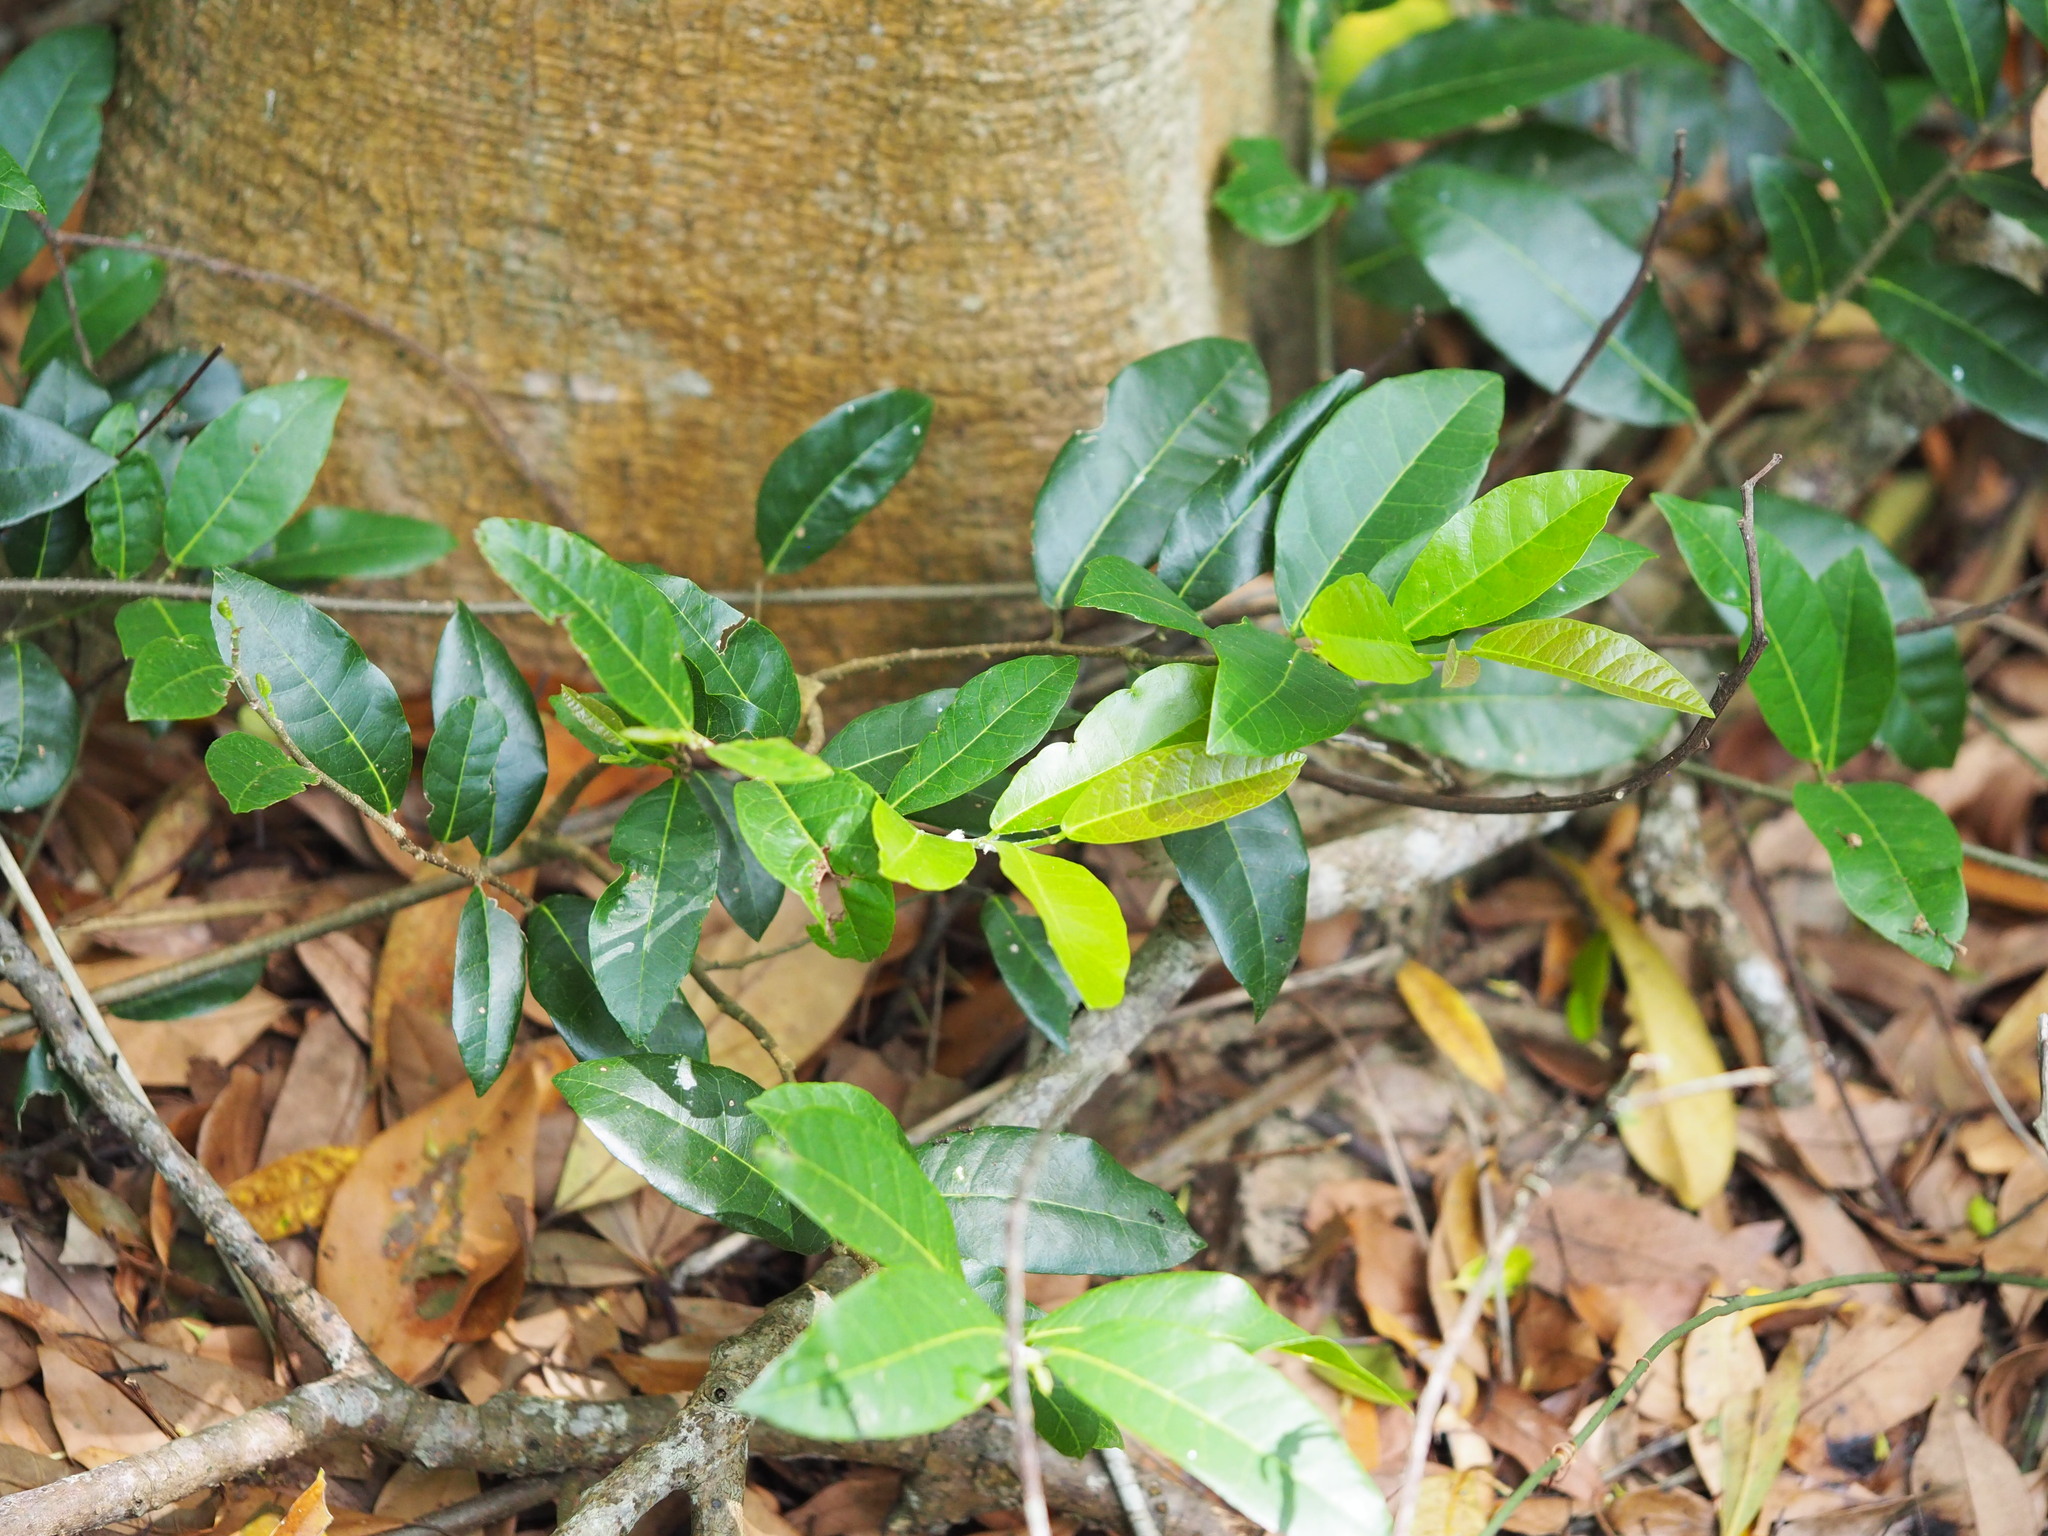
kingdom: Plantae
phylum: Tracheophyta
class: Magnoliopsida
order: Rosales
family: Moraceae
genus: Malaisia
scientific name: Malaisia scandens
